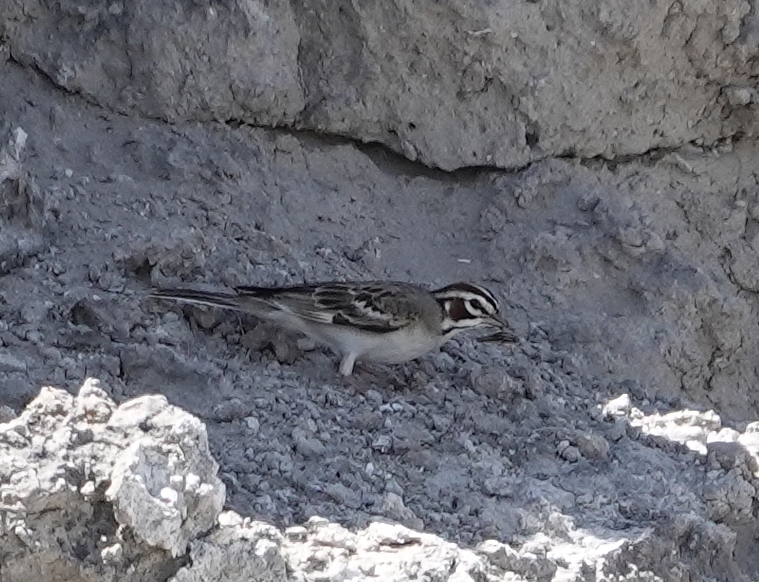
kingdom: Animalia
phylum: Chordata
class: Aves
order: Passeriformes
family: Passerellidae
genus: Chondestes
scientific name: Chondestes grammacus
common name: Lark sparrow
